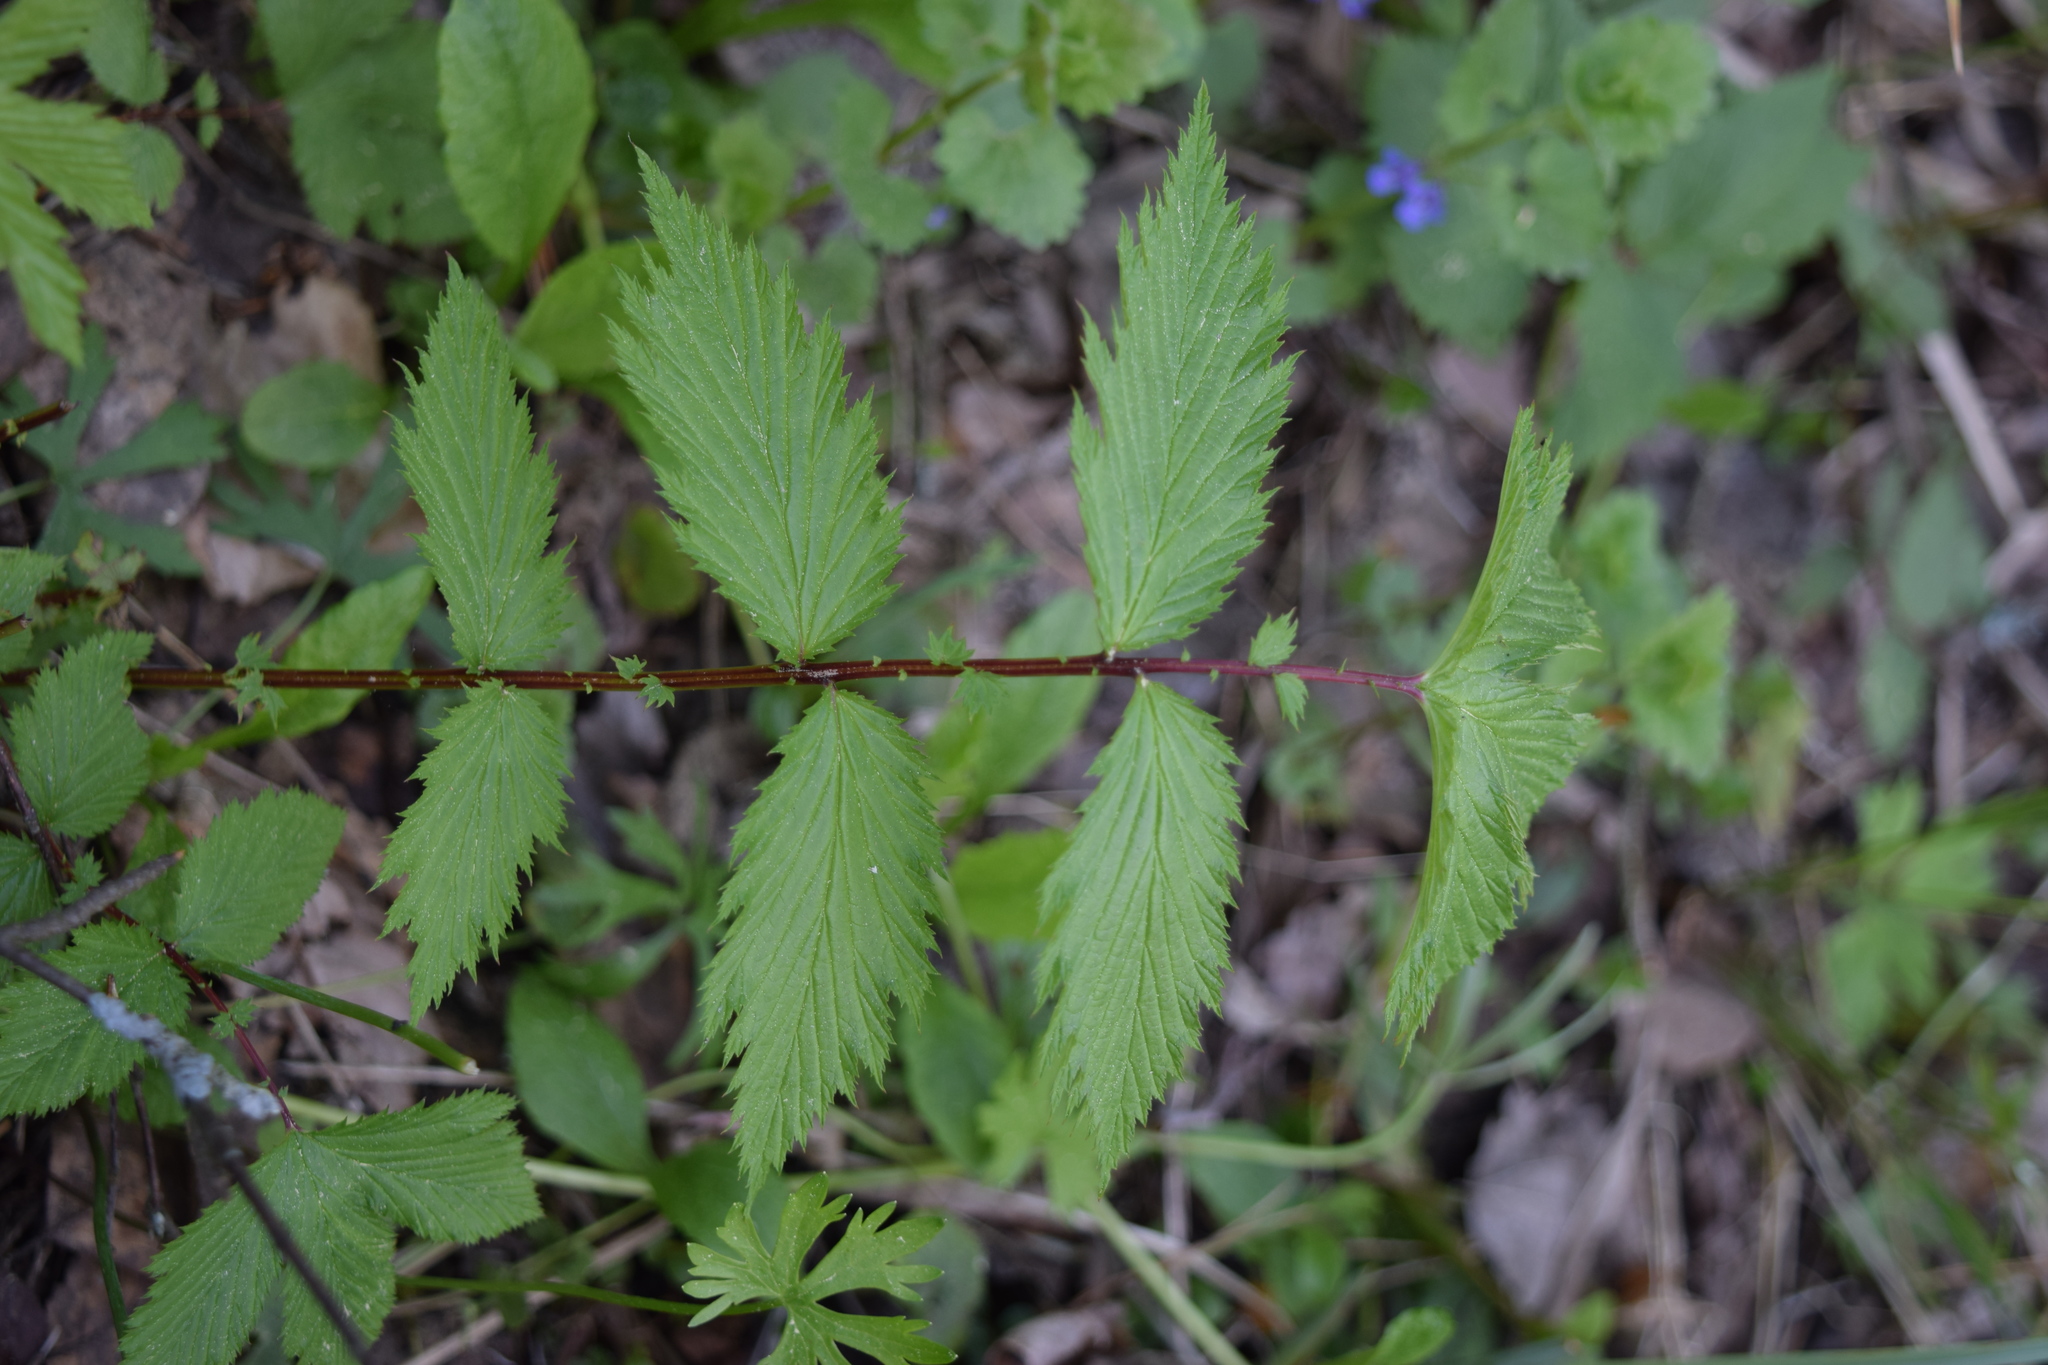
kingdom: Plantae
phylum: Tracheophyta
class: Magnoliopsida
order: Rosales
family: Rosaceae
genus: Filipendula
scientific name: Filipendula ulmaria
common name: Meadowsweet
